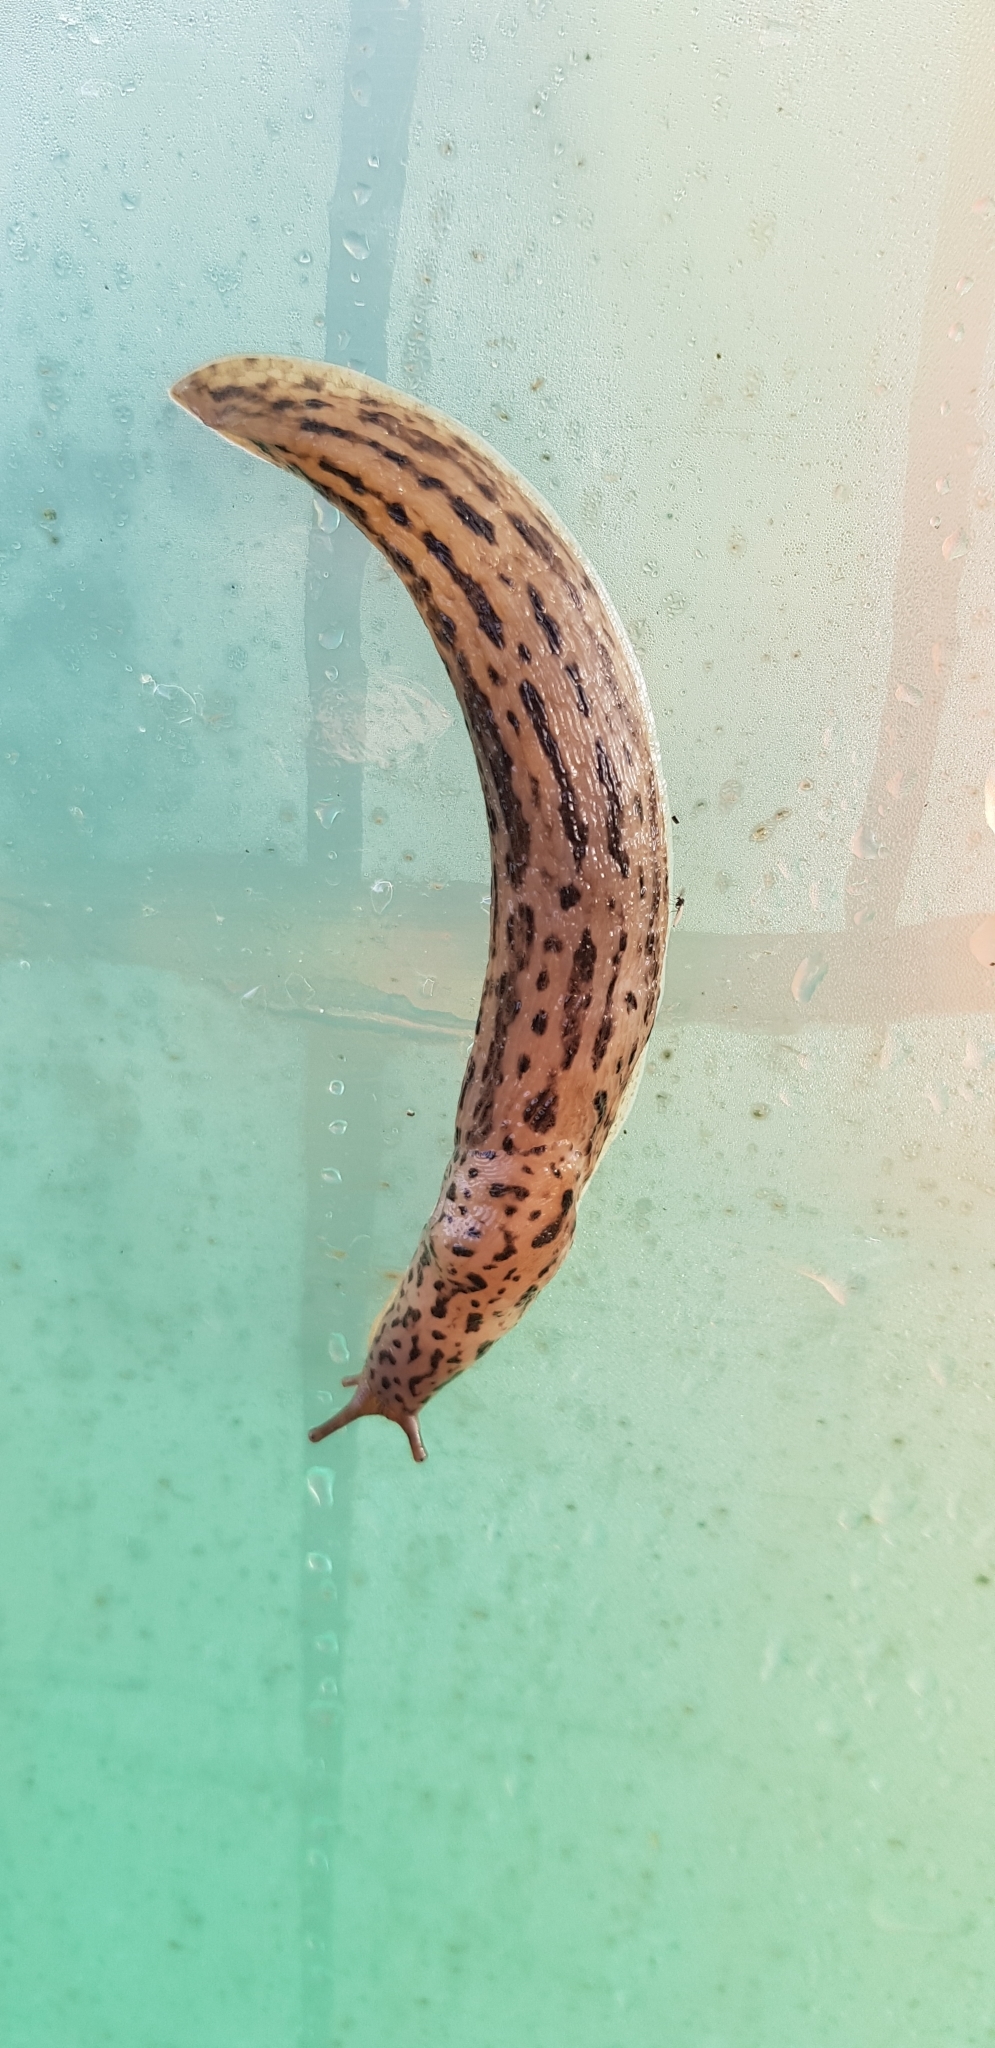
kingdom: Animalia
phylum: Mollusca
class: Gastropoda
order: Stylommatophora
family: Limacidae
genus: Limax
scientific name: Limax maximus
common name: Great grey slug
